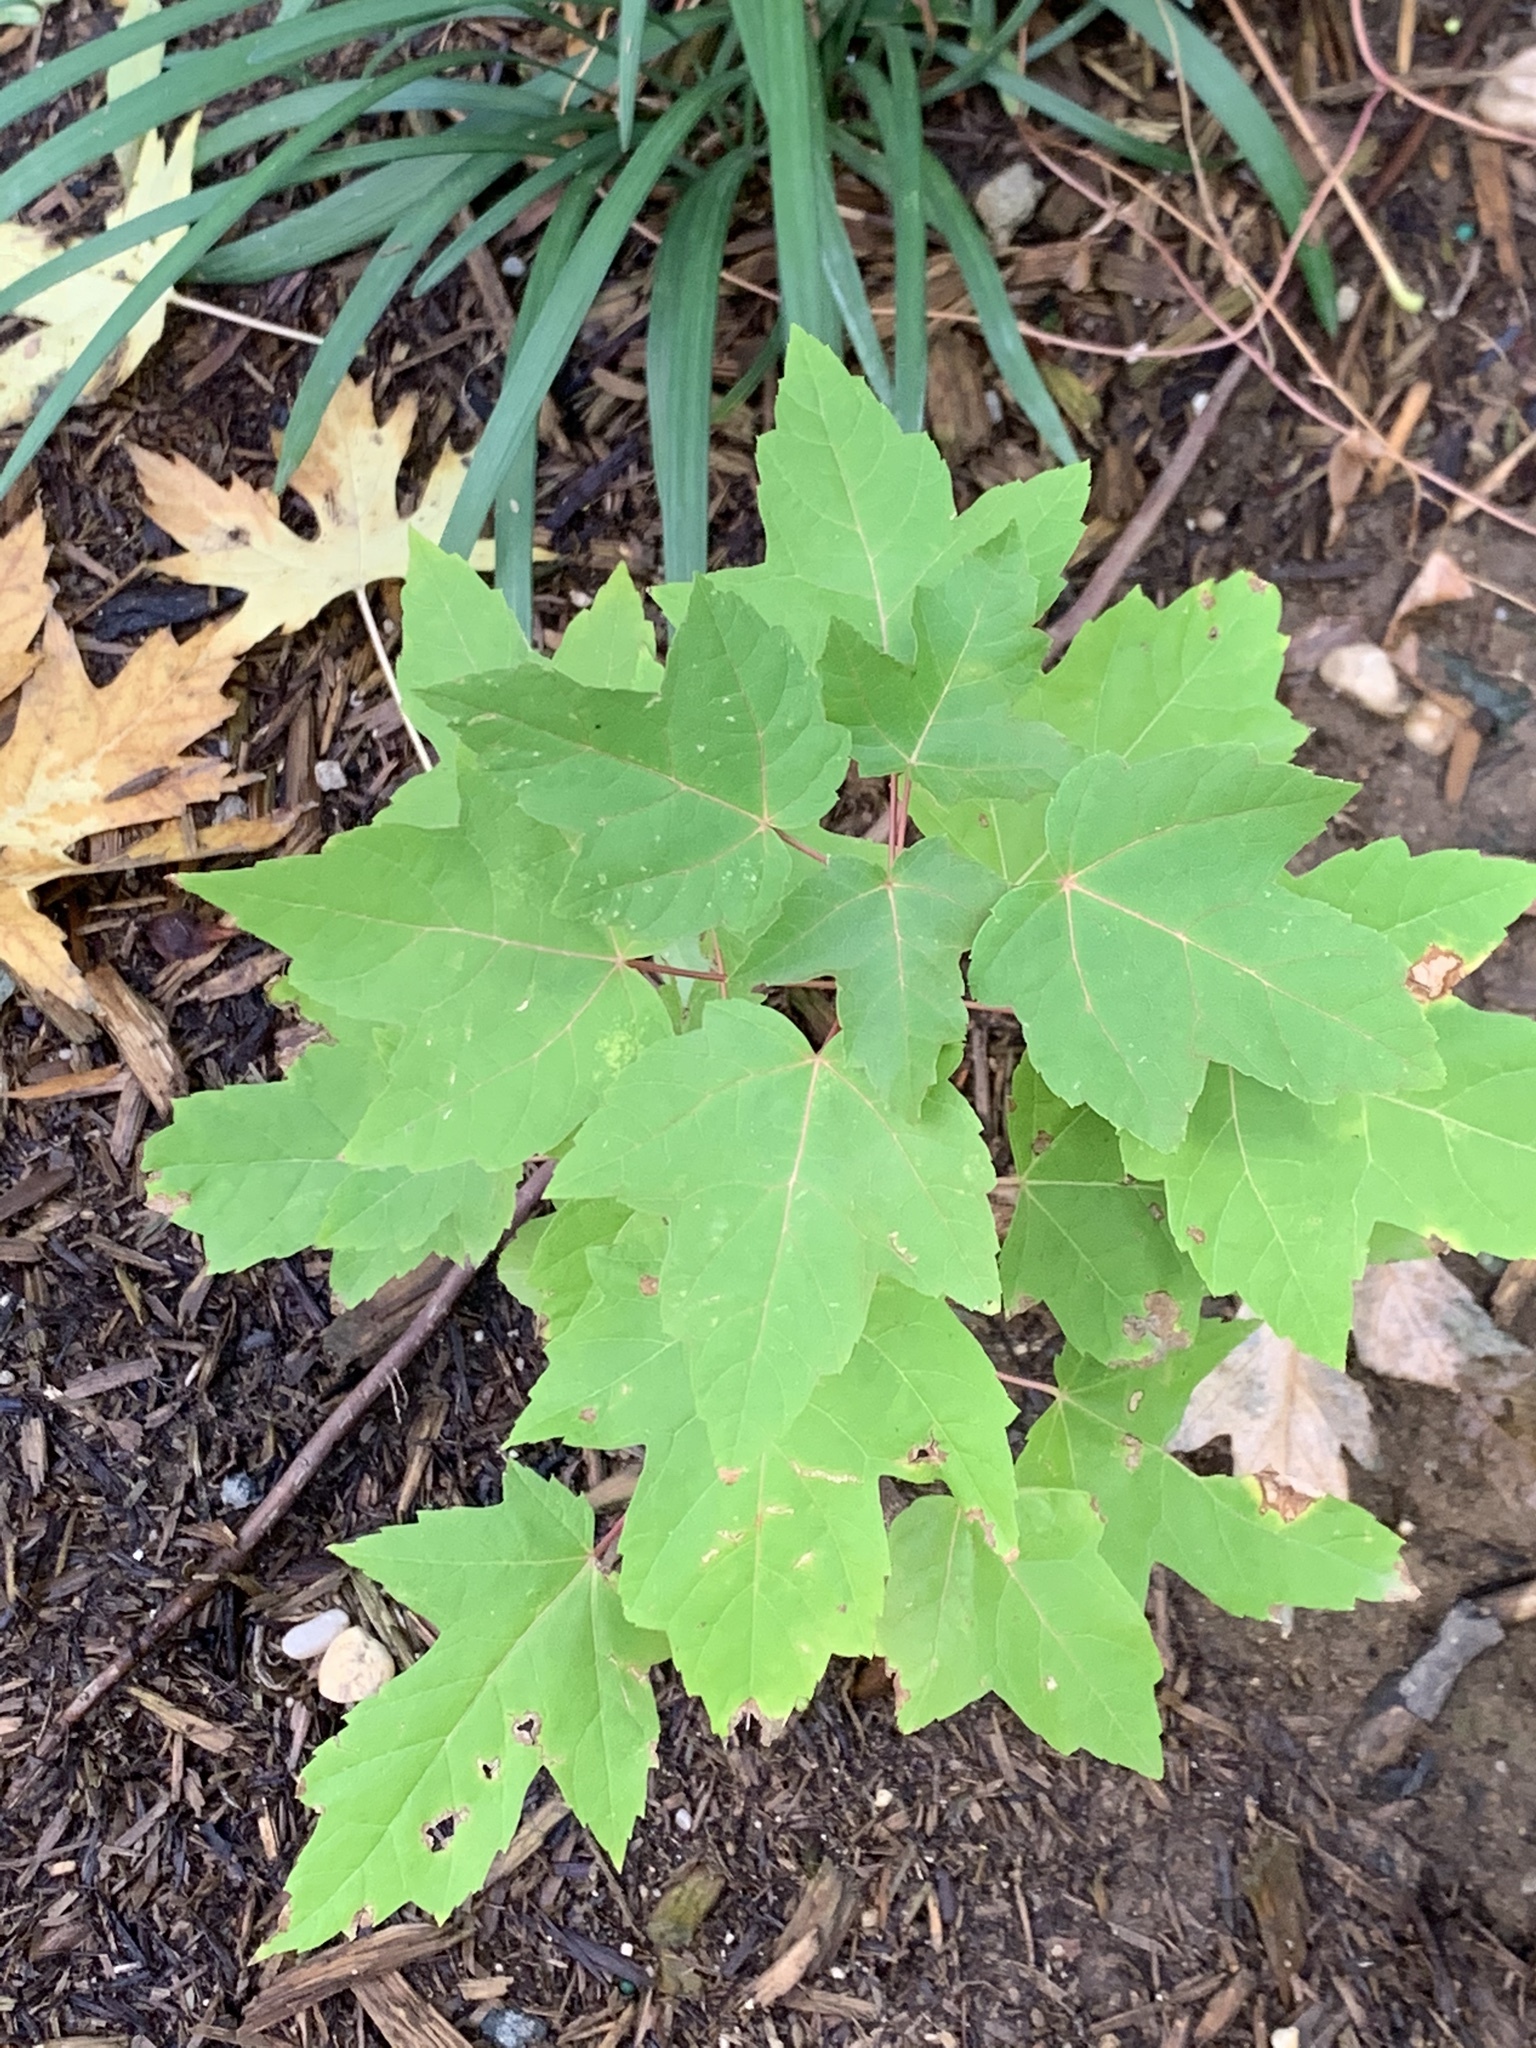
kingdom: Plantae
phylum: Tracheophyta
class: Magnoliopsida
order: Sapindales
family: Sapindaceae
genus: Acer
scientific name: Acer rubrum
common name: Red maple
